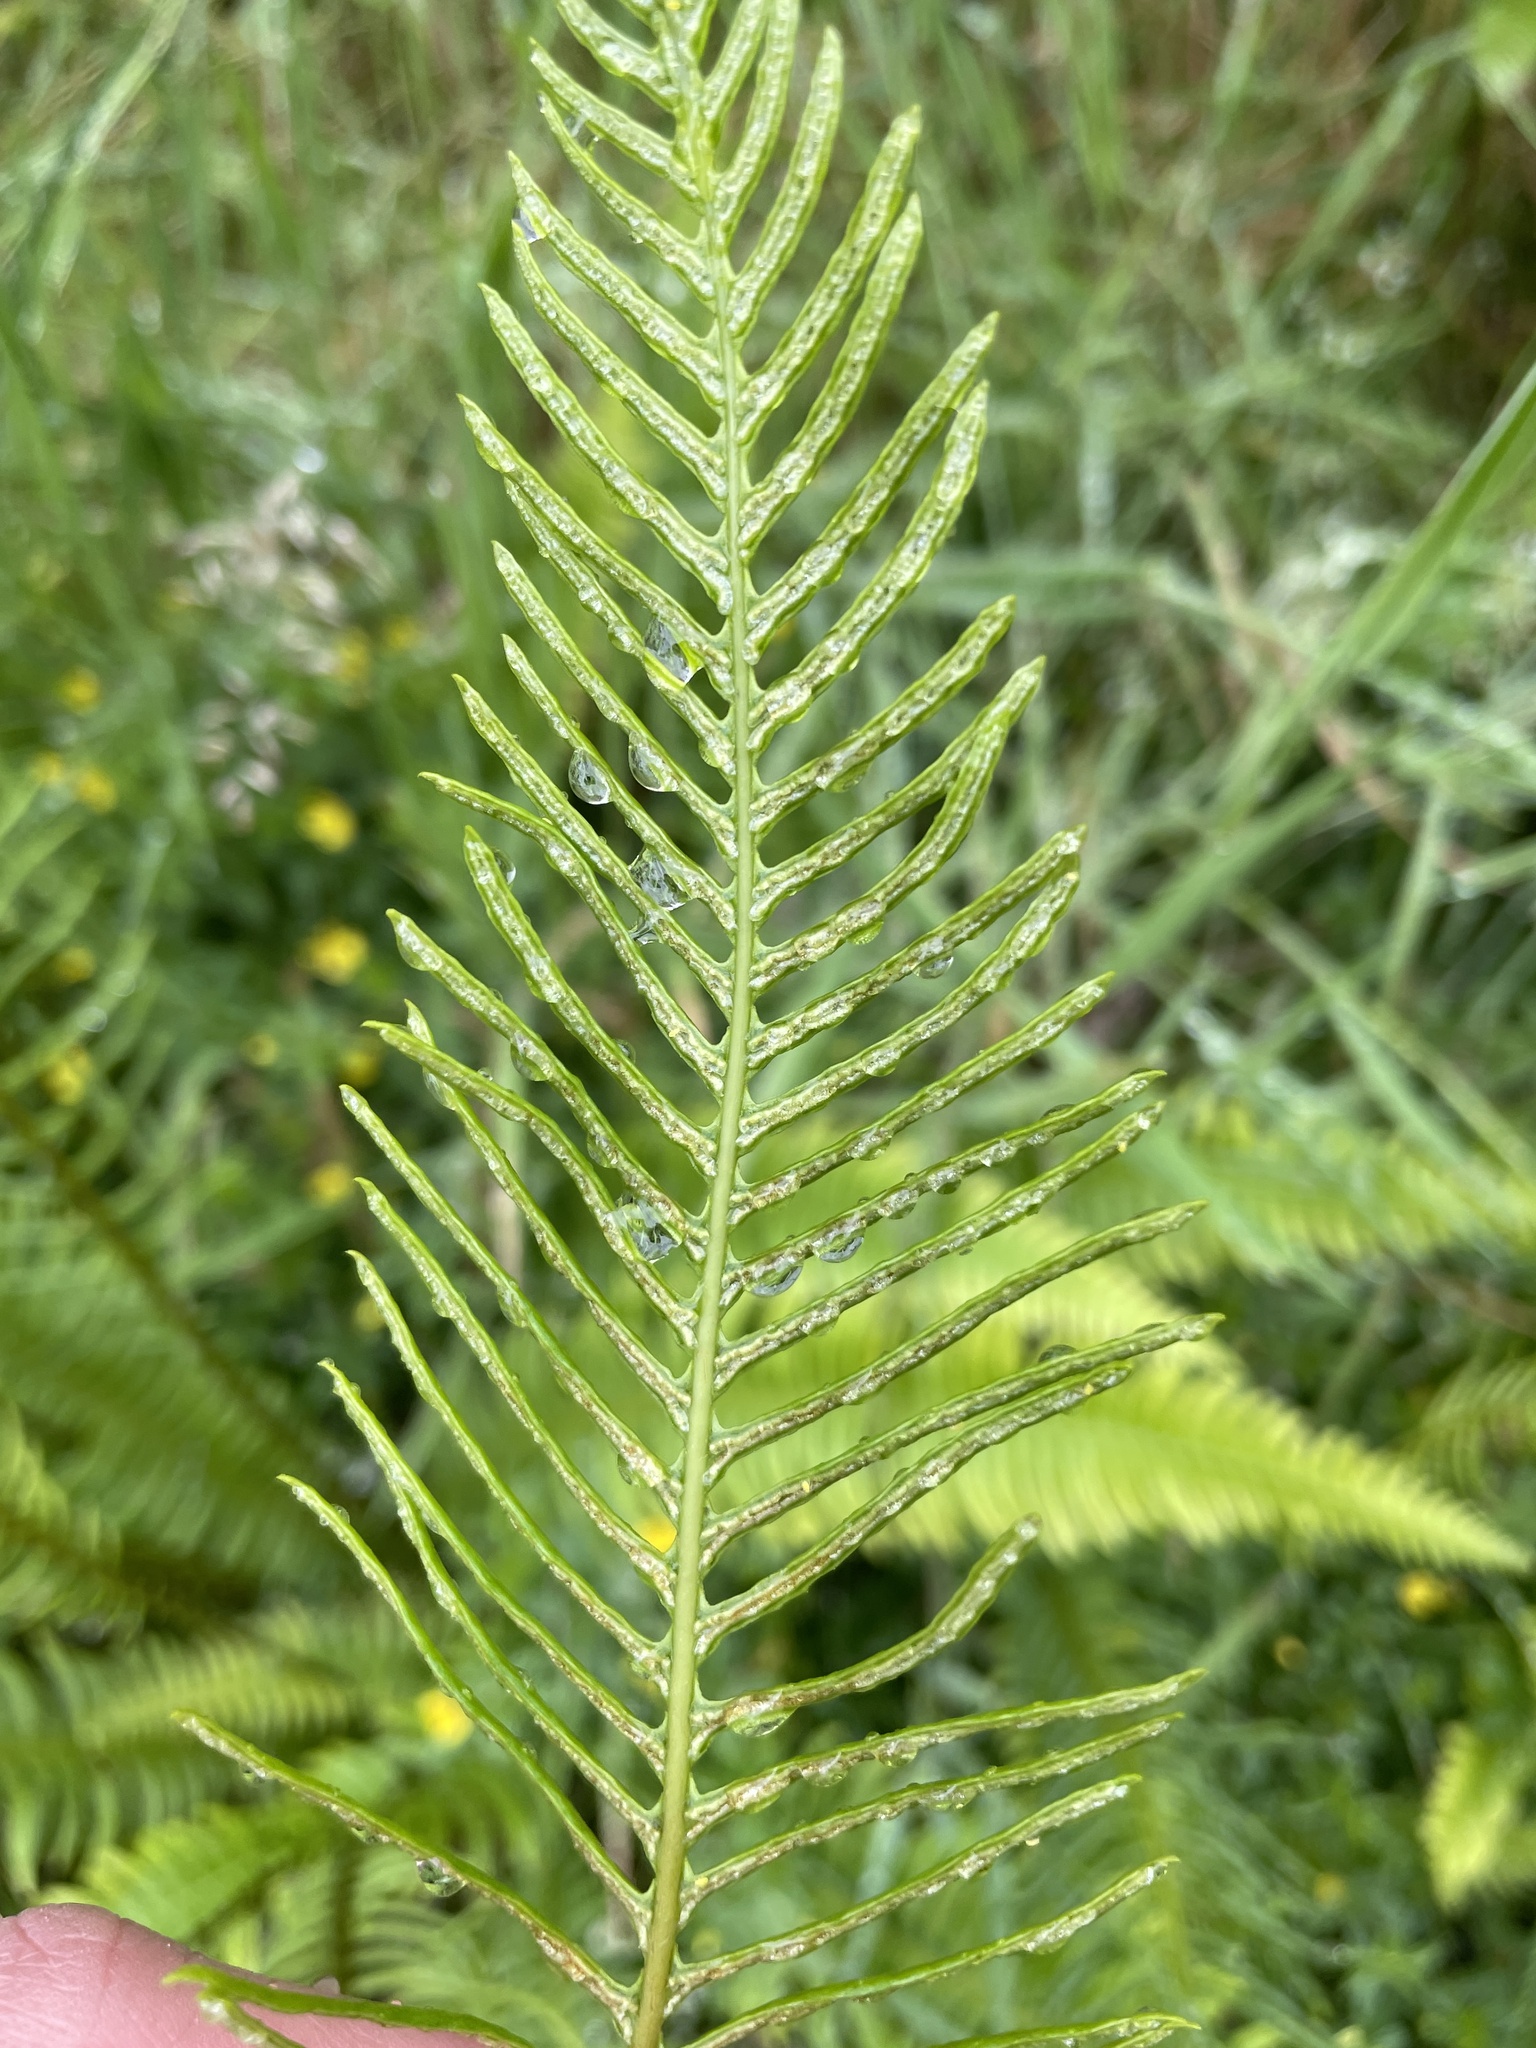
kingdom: Plantae
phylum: Tracheophyta
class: Polypodiopsida
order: Polypodiales
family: Blechnaceae
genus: Struthiopteris
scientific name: Struthiopteris spicant
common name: Deer fern
